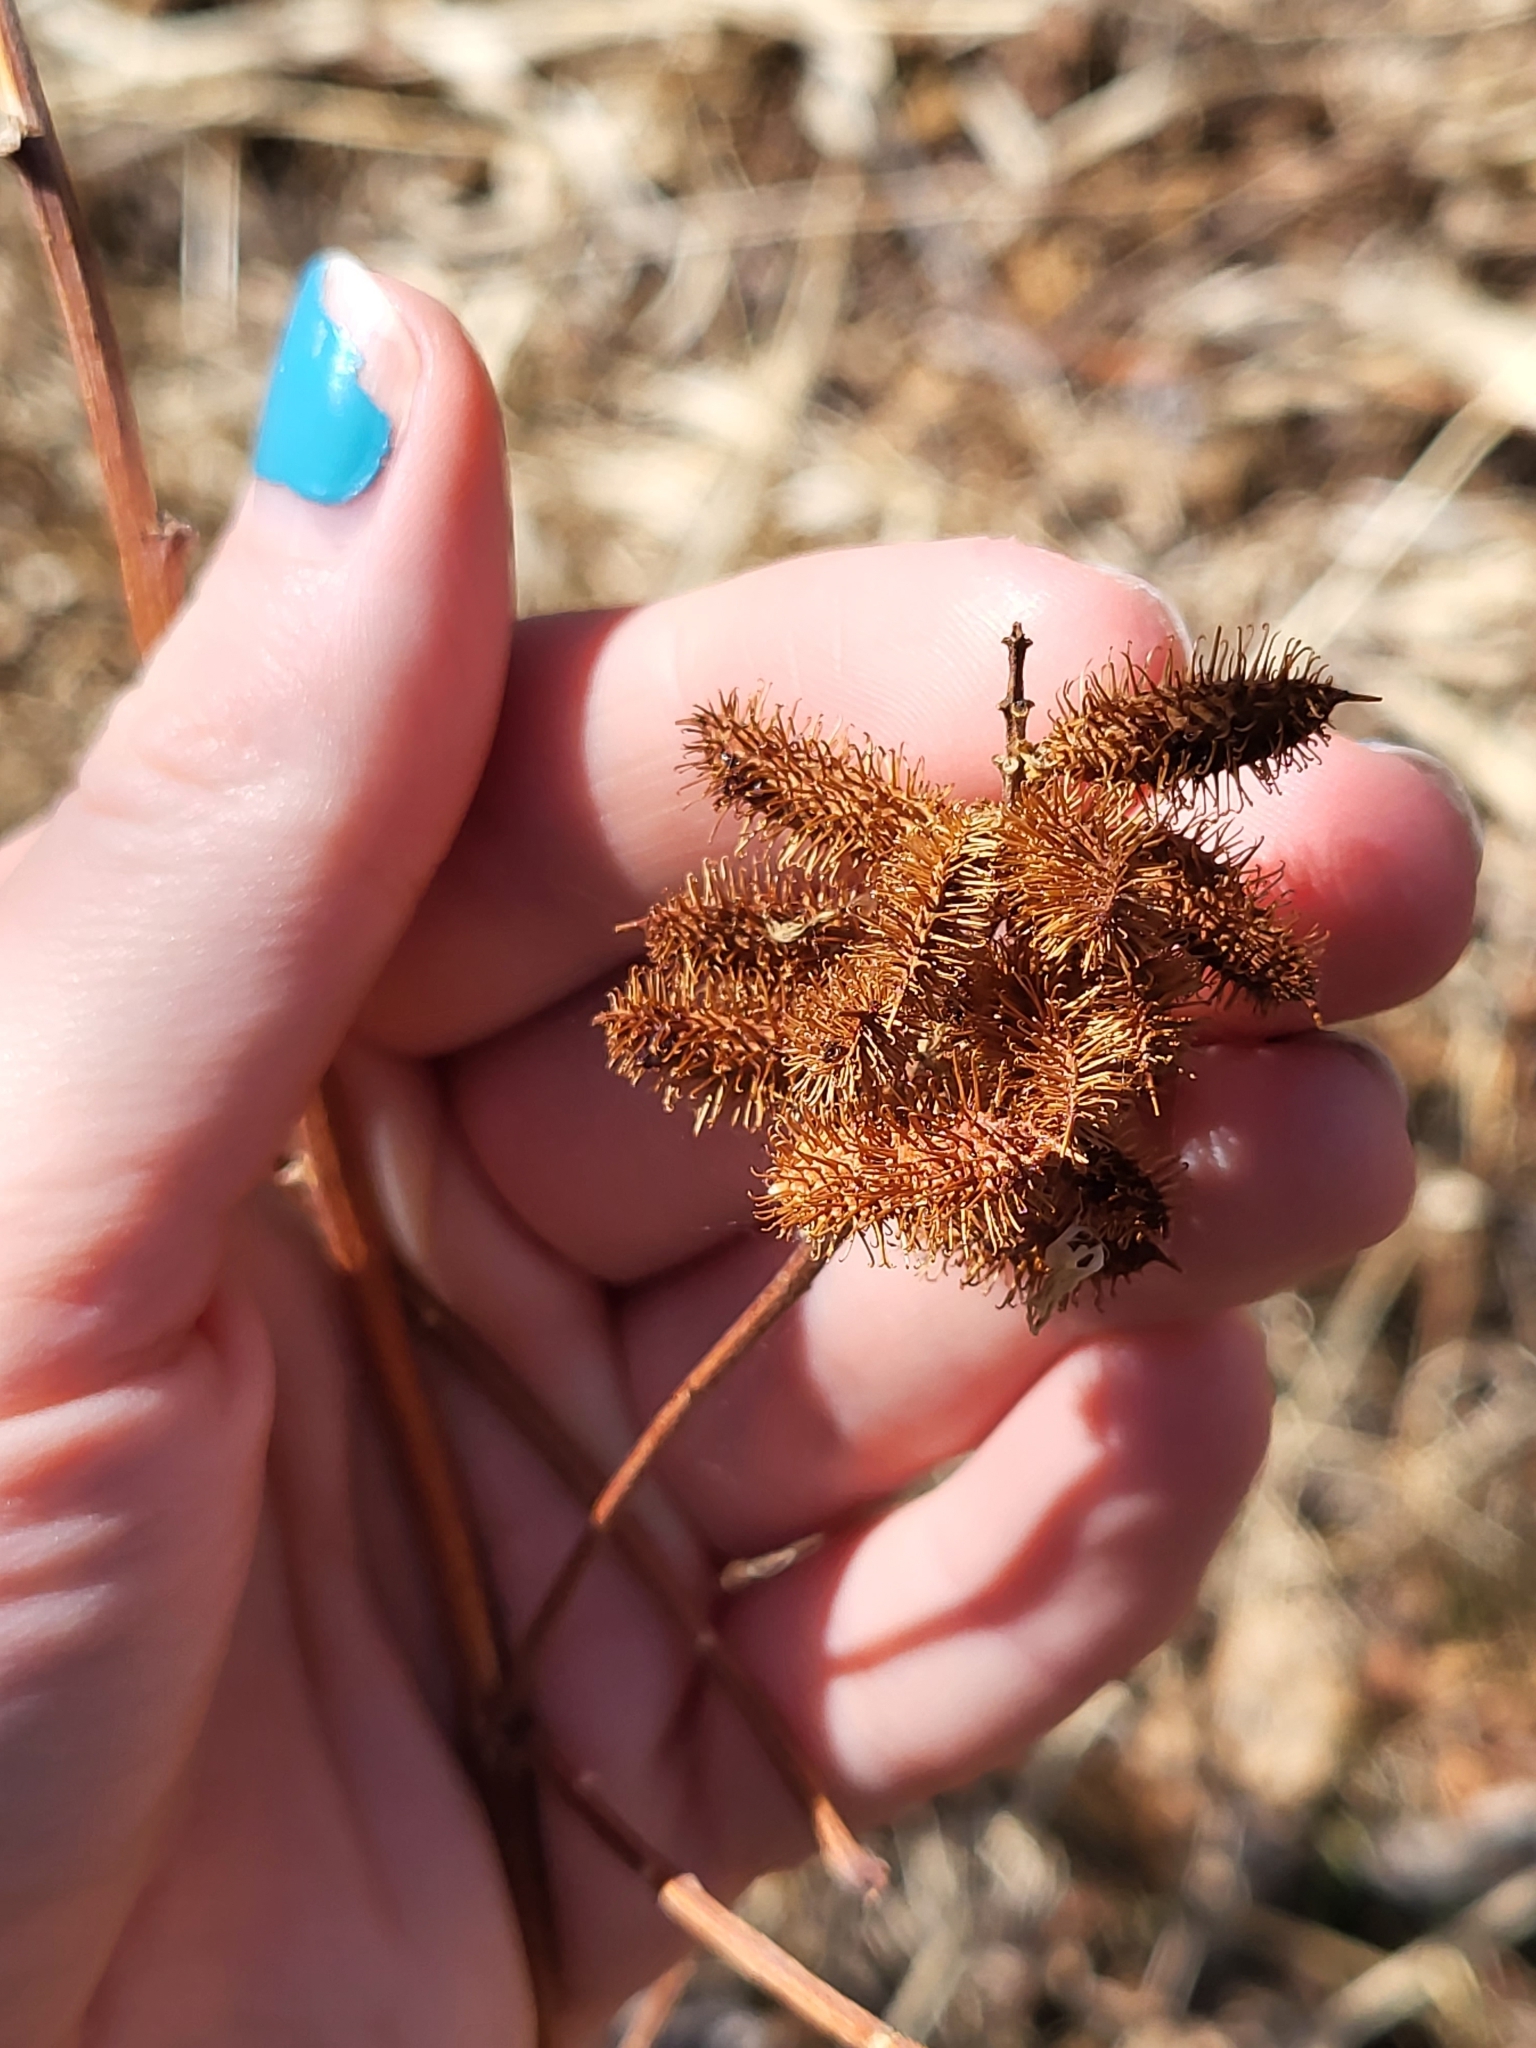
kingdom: Plantae
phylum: Tracheophyta
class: Magnoliopsida
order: Fabales
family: Fabaceae
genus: Glycyrrhiza
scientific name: Glycyrrhiza lepidota
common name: American liquorice
